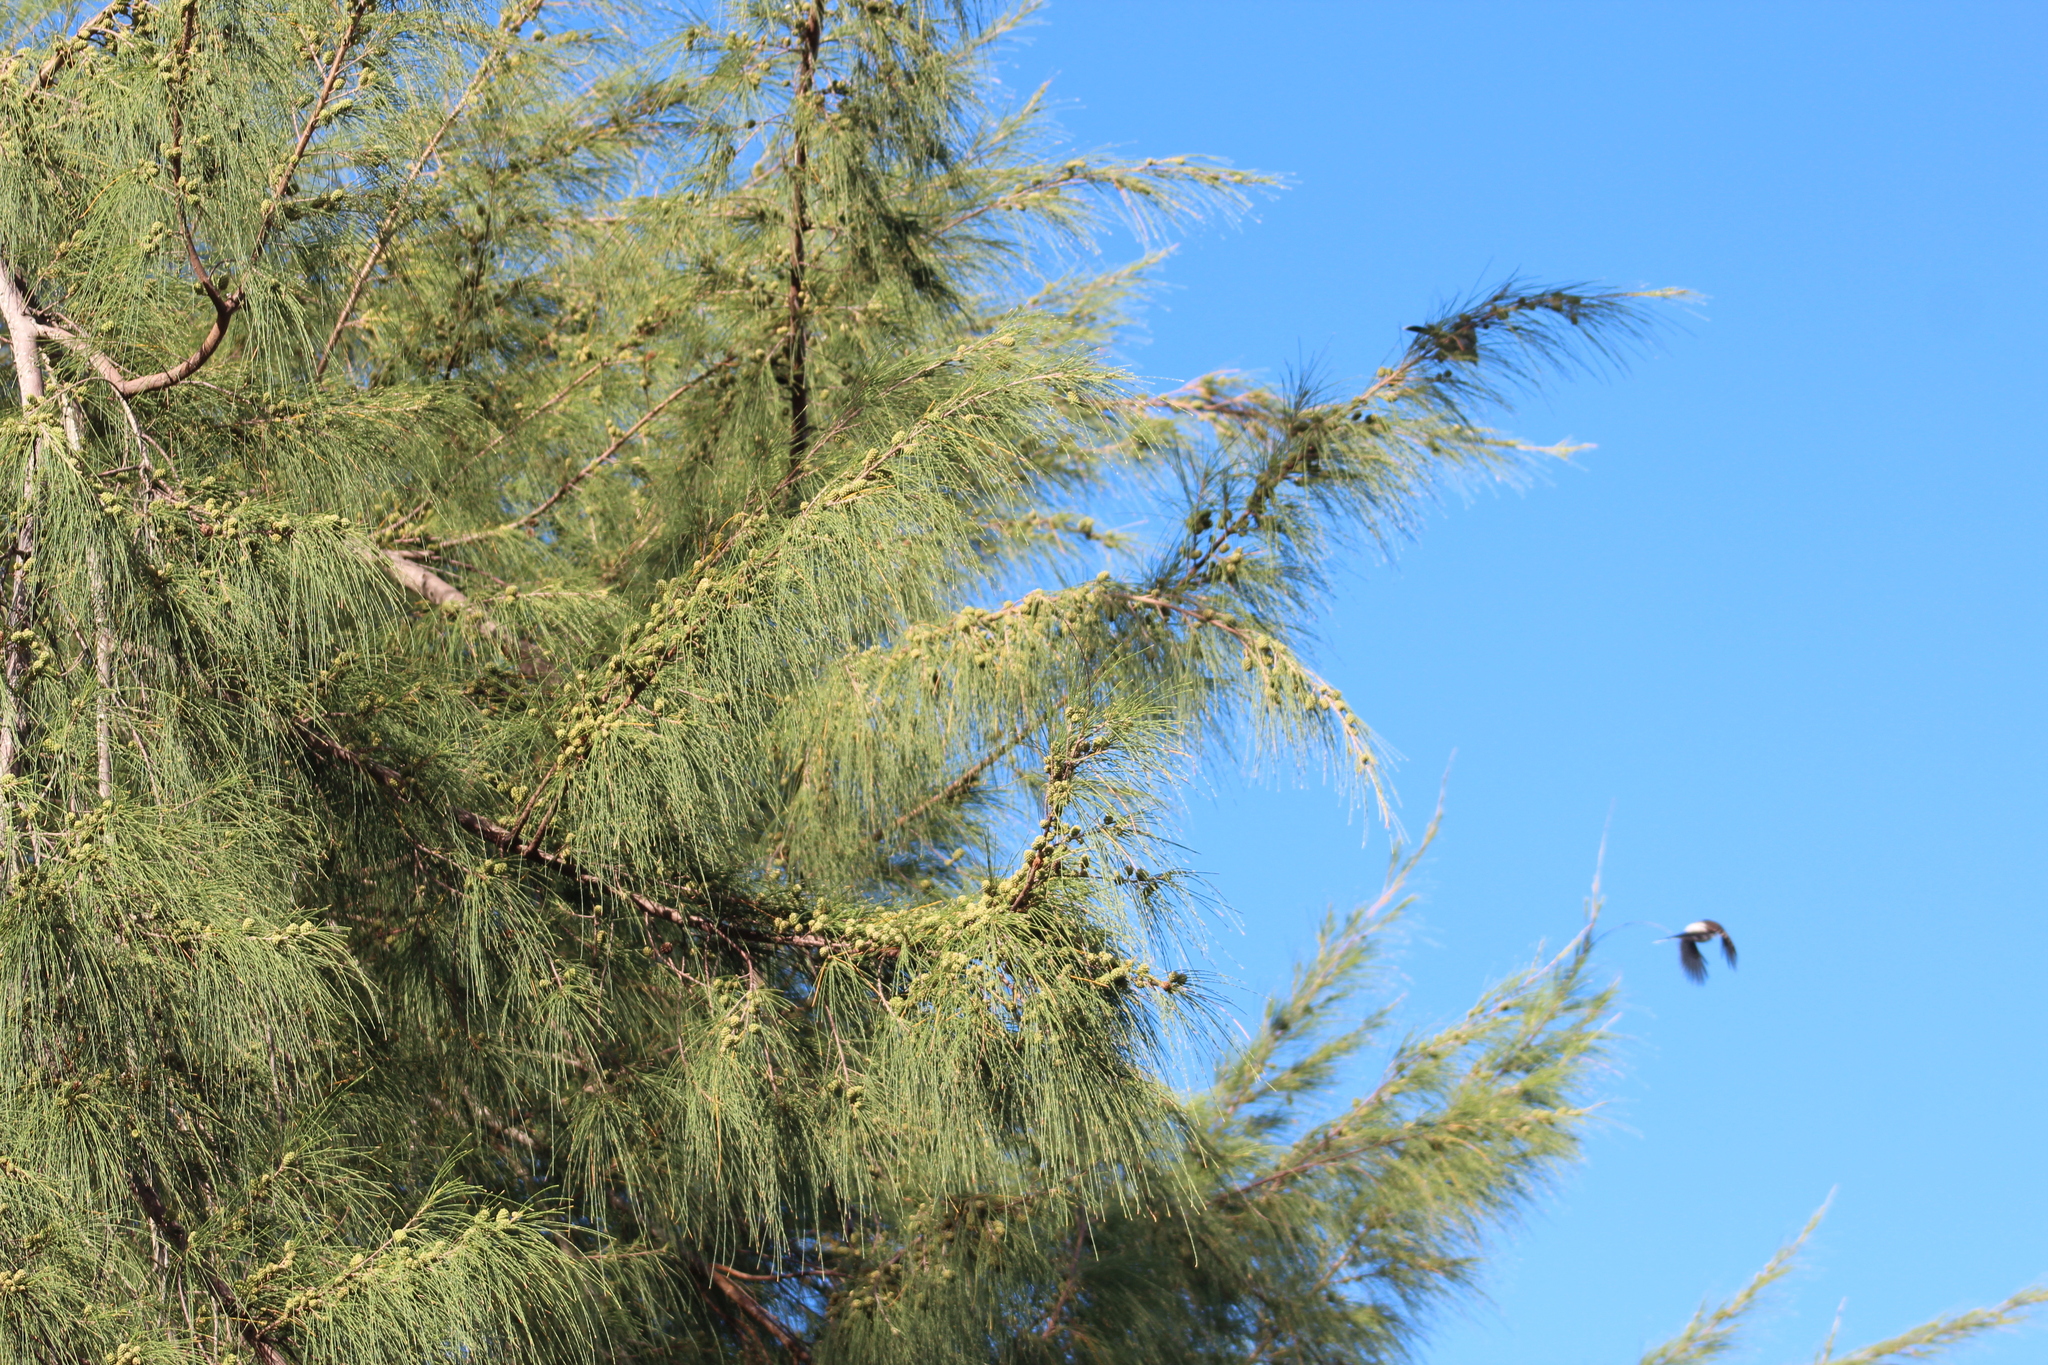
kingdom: Plantae
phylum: Tracheophyta
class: Magnoliopsida
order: Fagales
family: Casuarinaceae
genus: Casuarina
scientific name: Casuarina equisetifolia
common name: Beach sheoak
